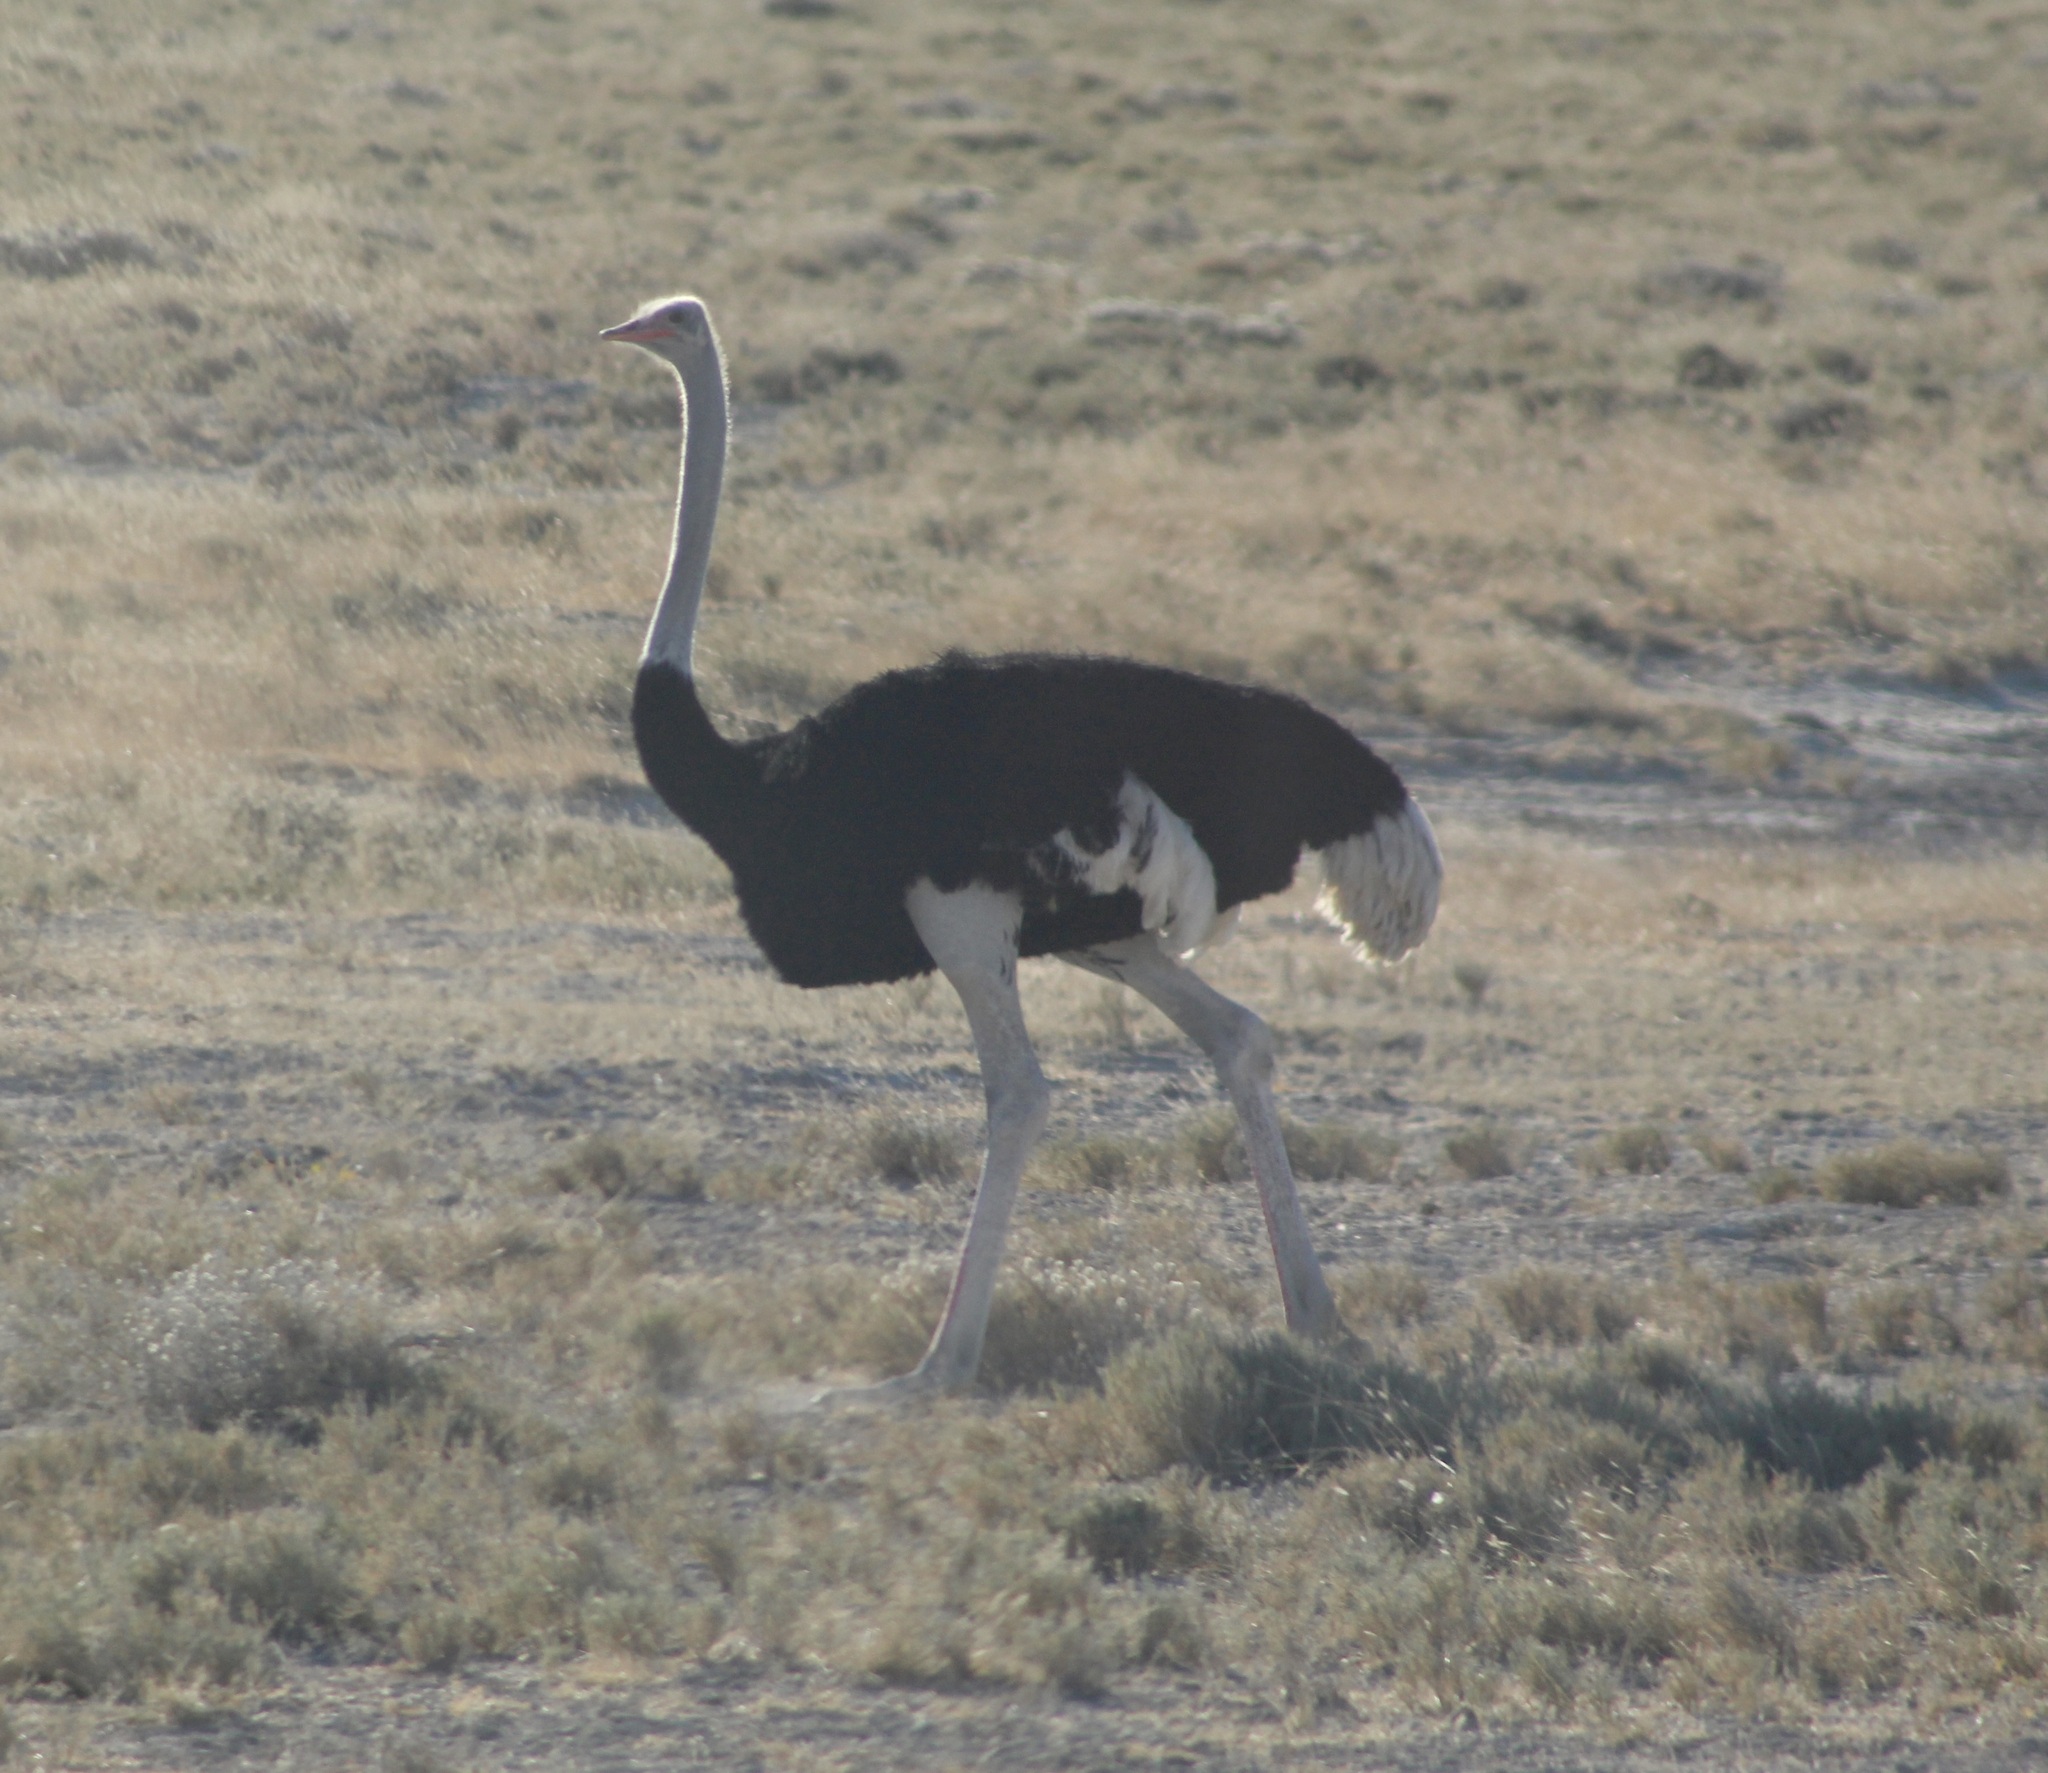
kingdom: Animalia
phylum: Chordata
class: Aves
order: Struthioniformes
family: Struthionidae
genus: Struthio
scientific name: Struthio camelus
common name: Common ostrich
